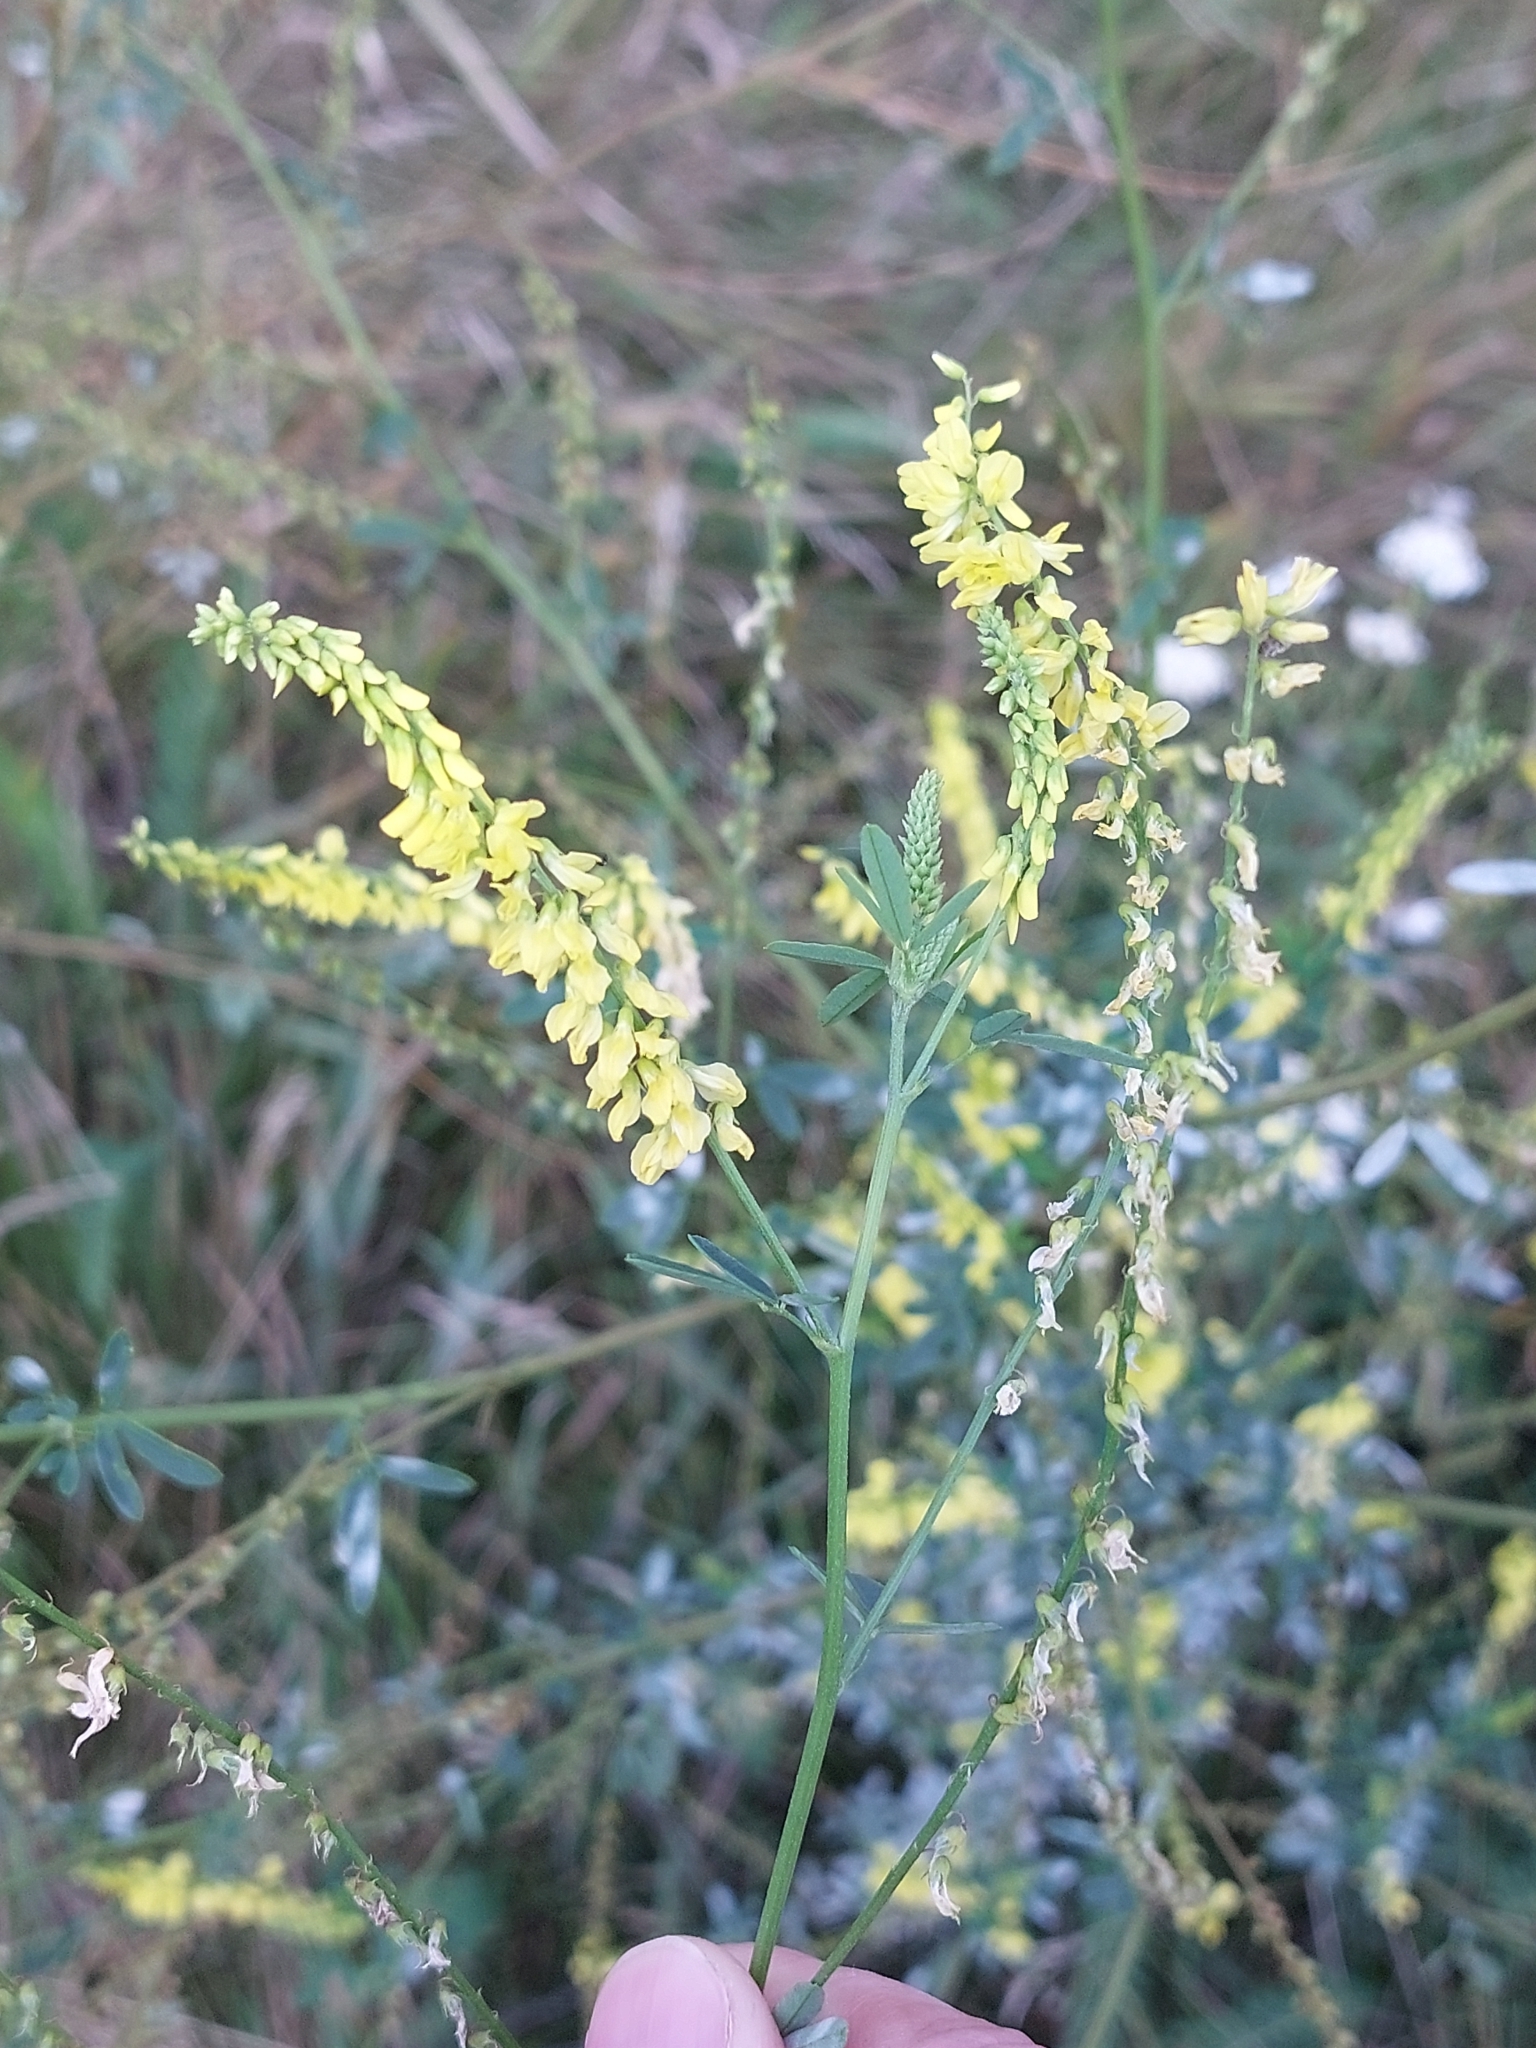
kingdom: Plantae
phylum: Tracheophyta
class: Magnoliopsida
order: Fabales
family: Fabaceae
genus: Melilotus
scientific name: Melilotus officinalis
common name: Sweetclover
